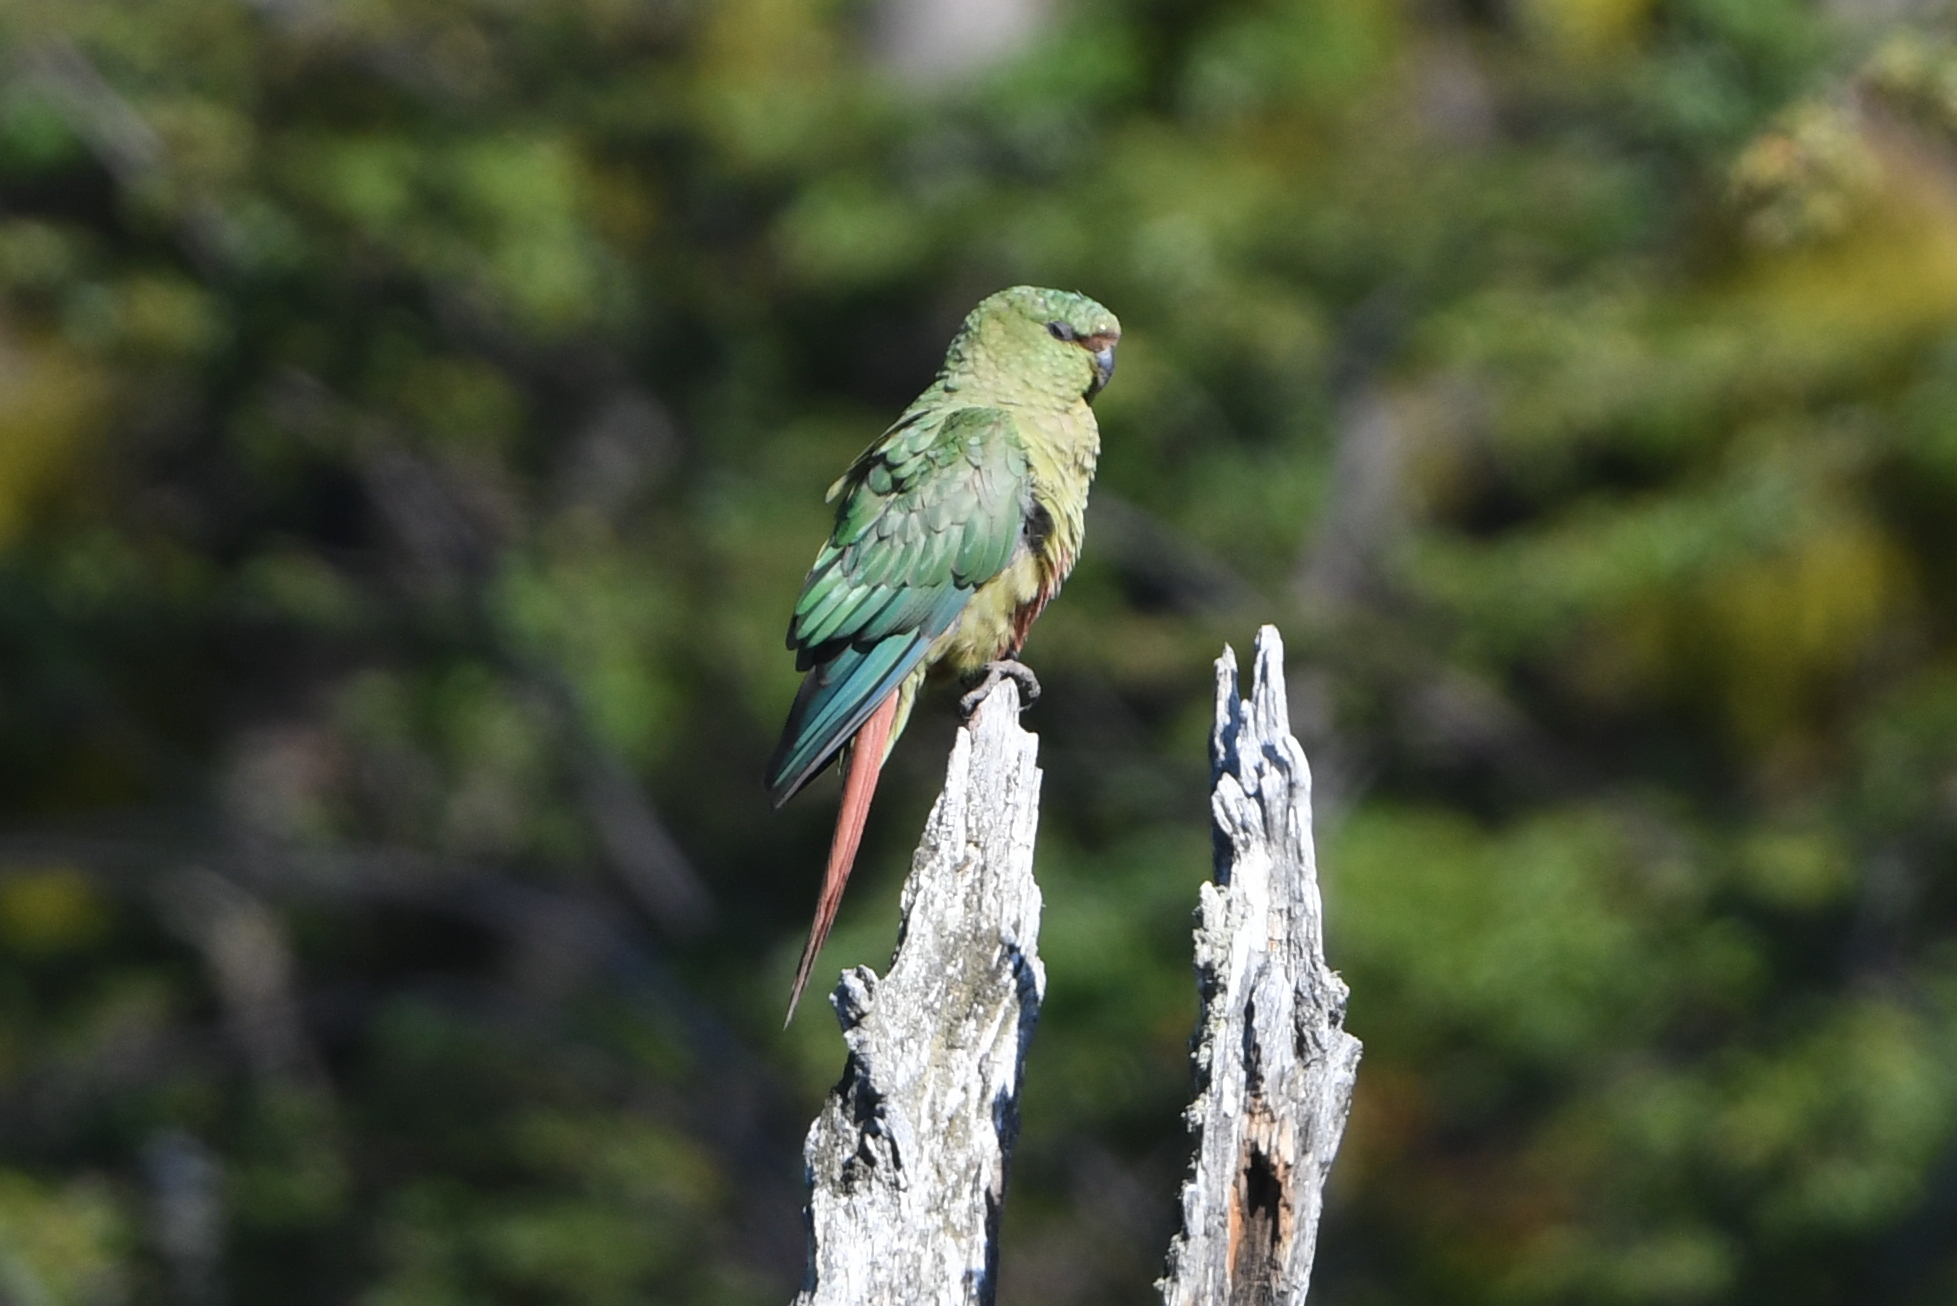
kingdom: Animalia
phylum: Chordata
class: Aves
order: Psittaciformes
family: Psittacidae
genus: Enicognathus
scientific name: Enicognathus ferrugineus
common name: Austral parakeet
